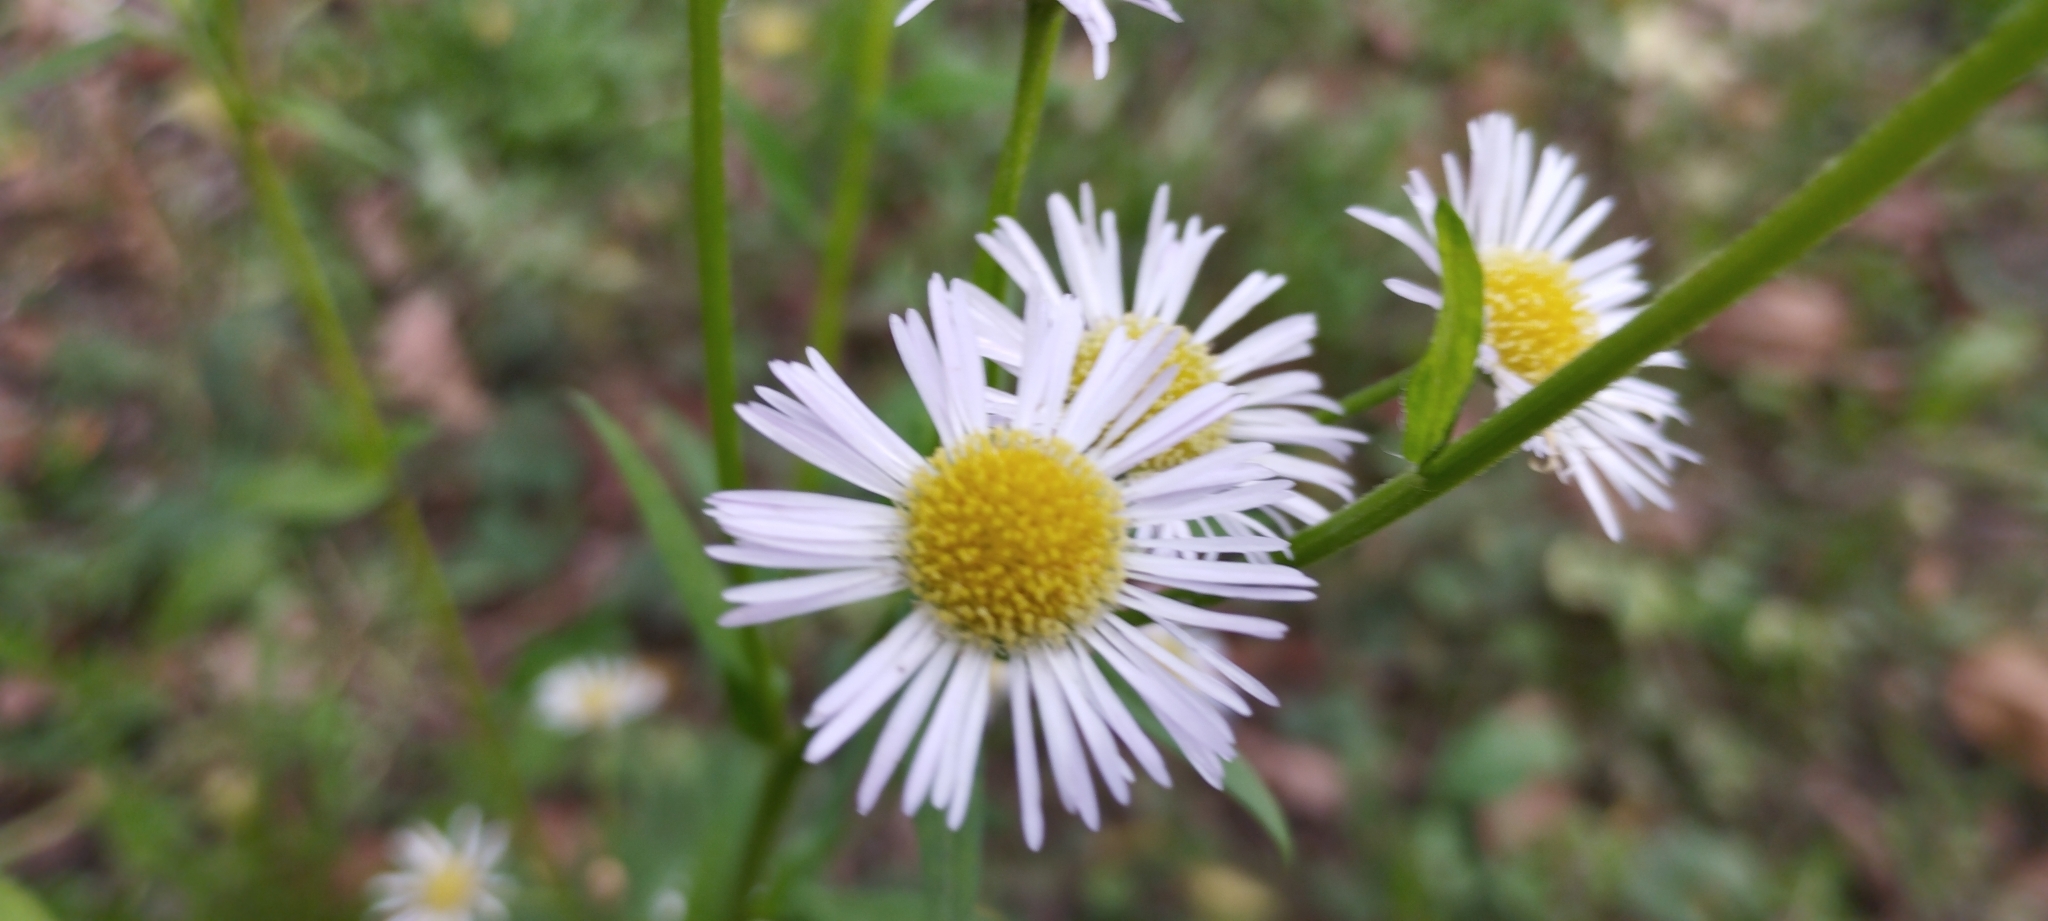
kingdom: Plantae
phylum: Tracheophyta
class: Magnoliopsida
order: Asterales
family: Asteraceae
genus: Erigeron
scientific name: Erigeron annuus
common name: Tall fleabane
